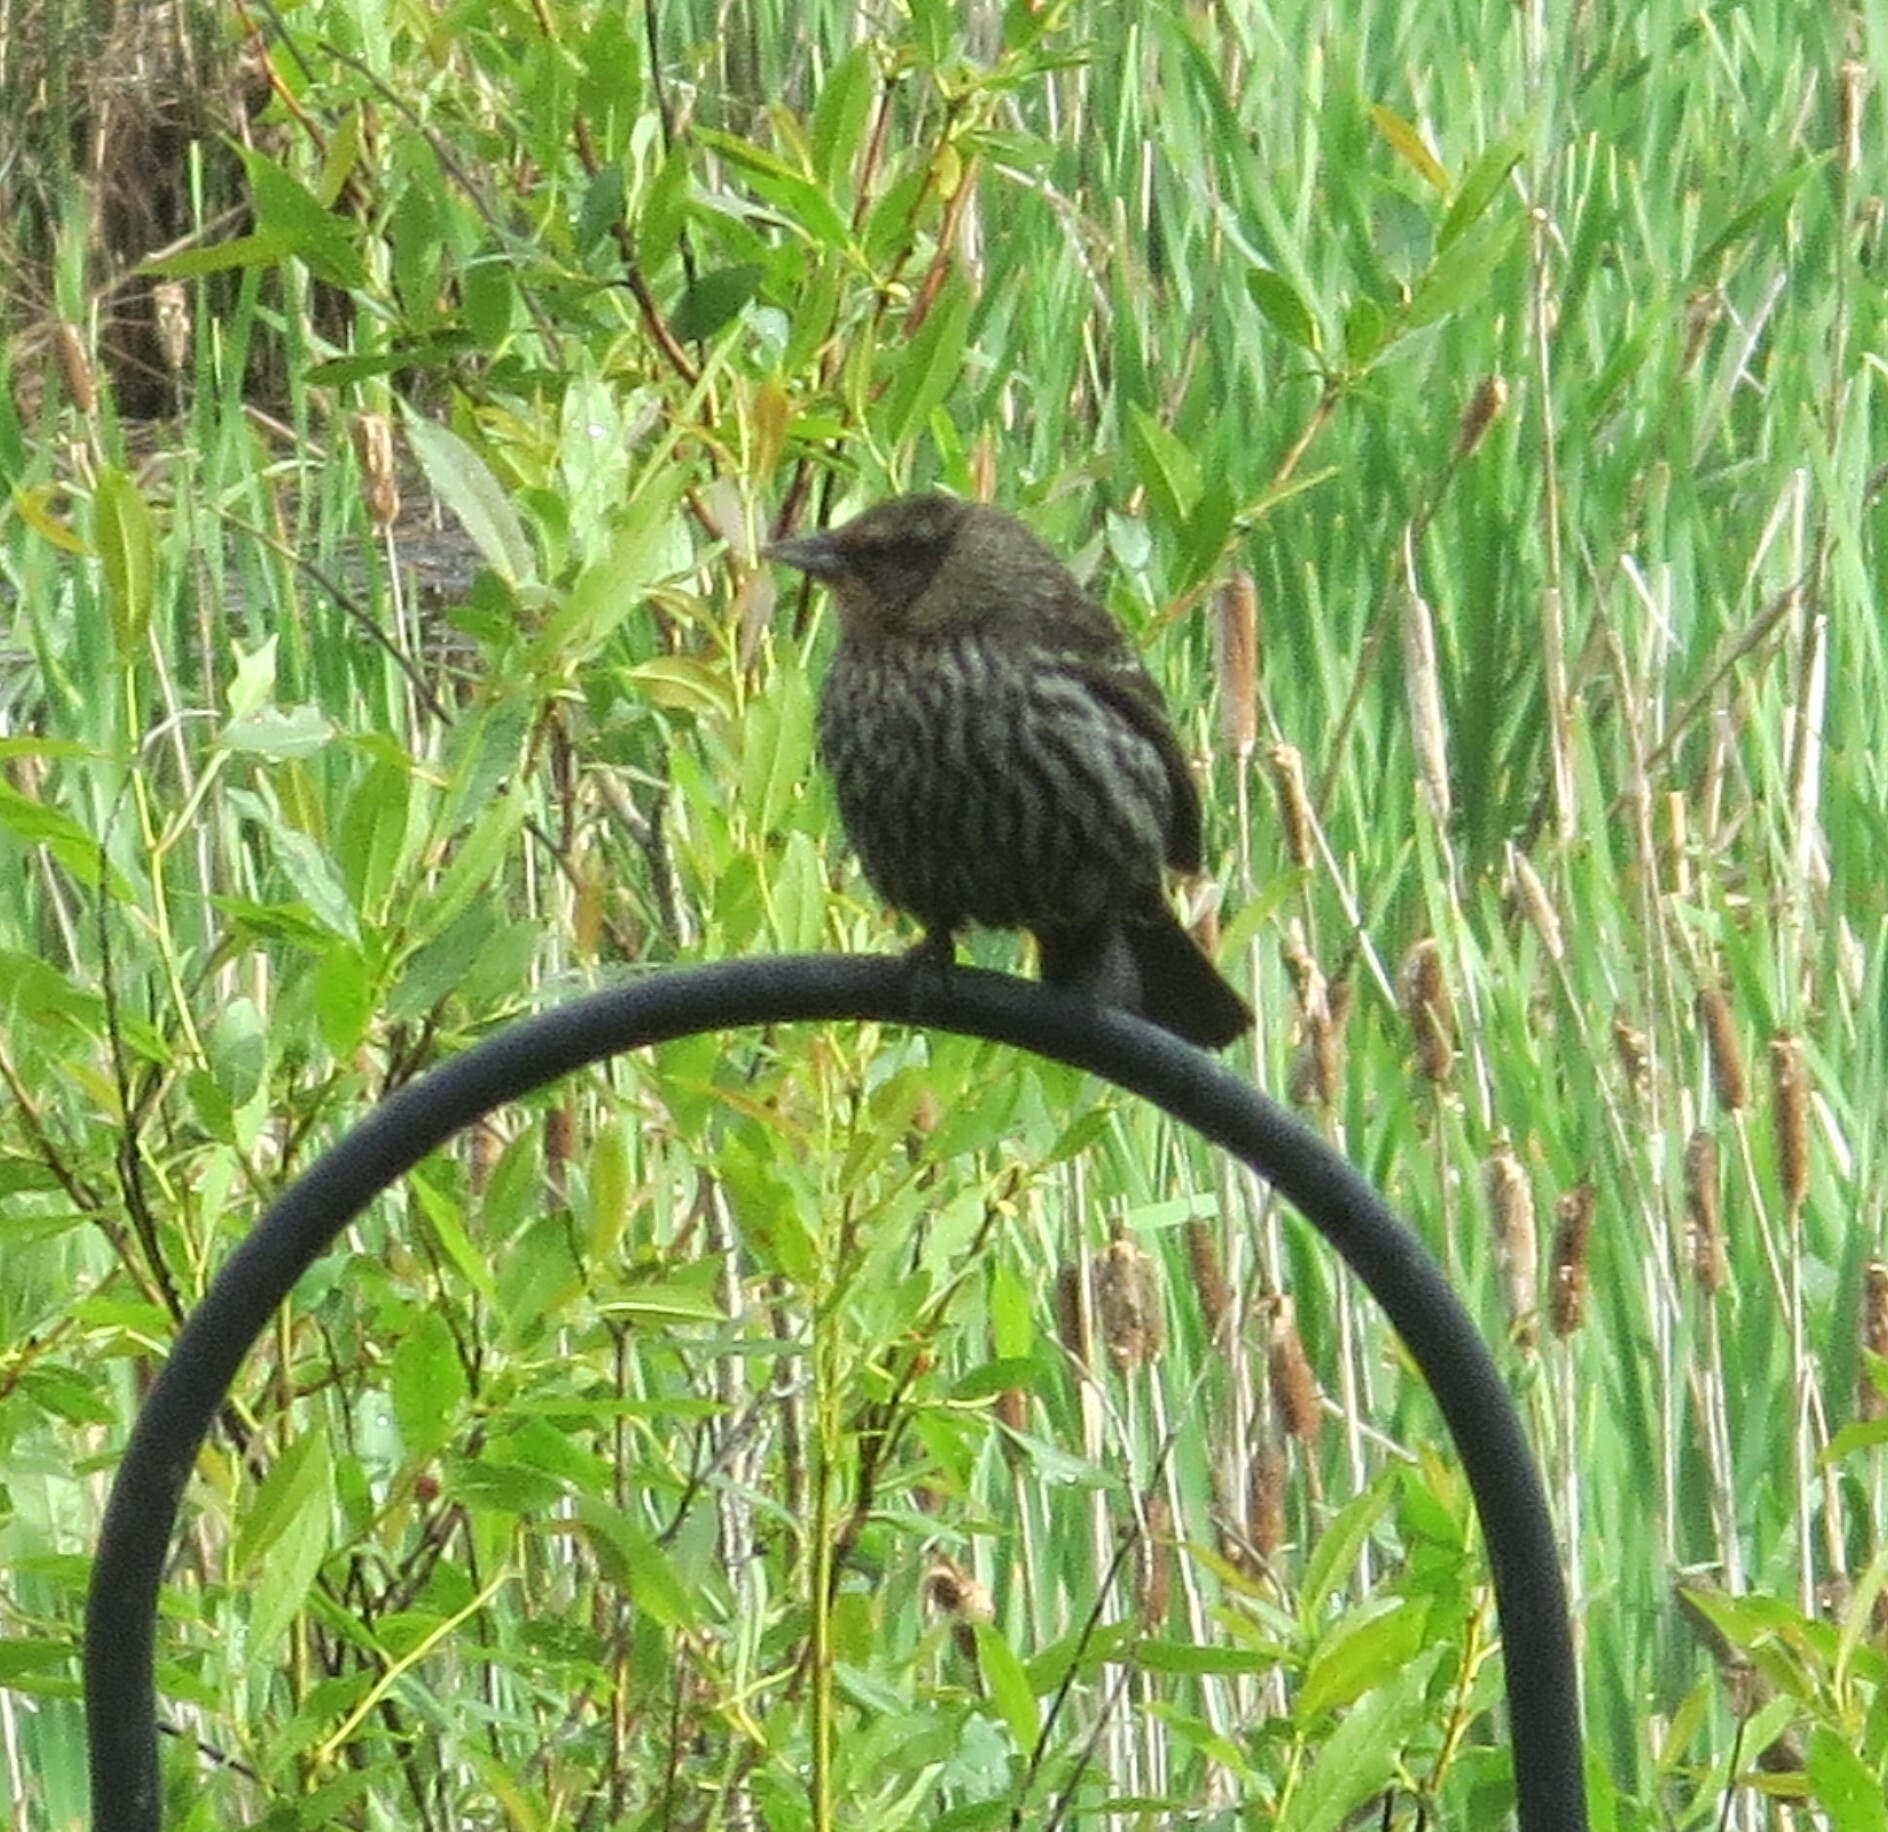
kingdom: Animalia
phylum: Chordata
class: Aves
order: Passeriformes
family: Icteridae
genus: Agelaius
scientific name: Agelaius phoeniceus
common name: Red-winged blackbird
